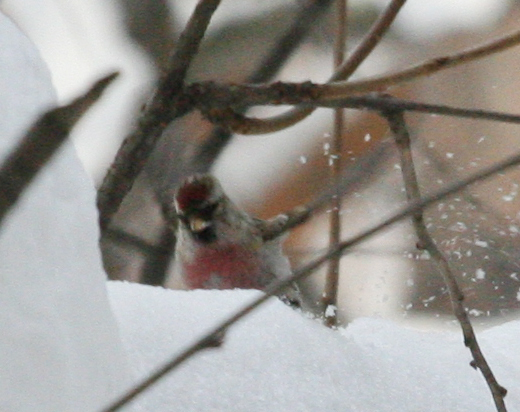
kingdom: Animalia
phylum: Chordata
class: Aves
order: Passeriformes
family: Fringillidae
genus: Acanthis
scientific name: Acanthis flammea
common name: Common redpoll
